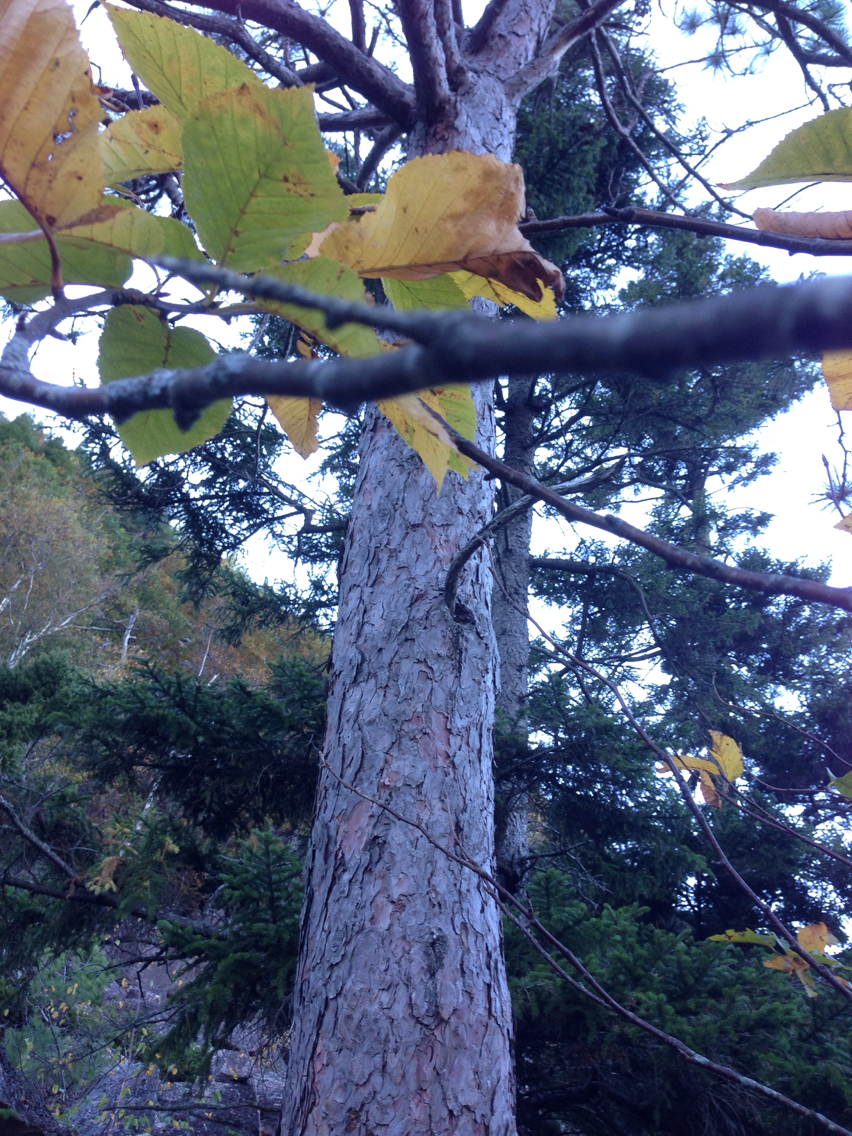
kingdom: Plantae
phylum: Tracheophyta
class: Pinopsida
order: Pinales
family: Pinaceae
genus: Pinus
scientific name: Pinus resinosa
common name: Norway pine
